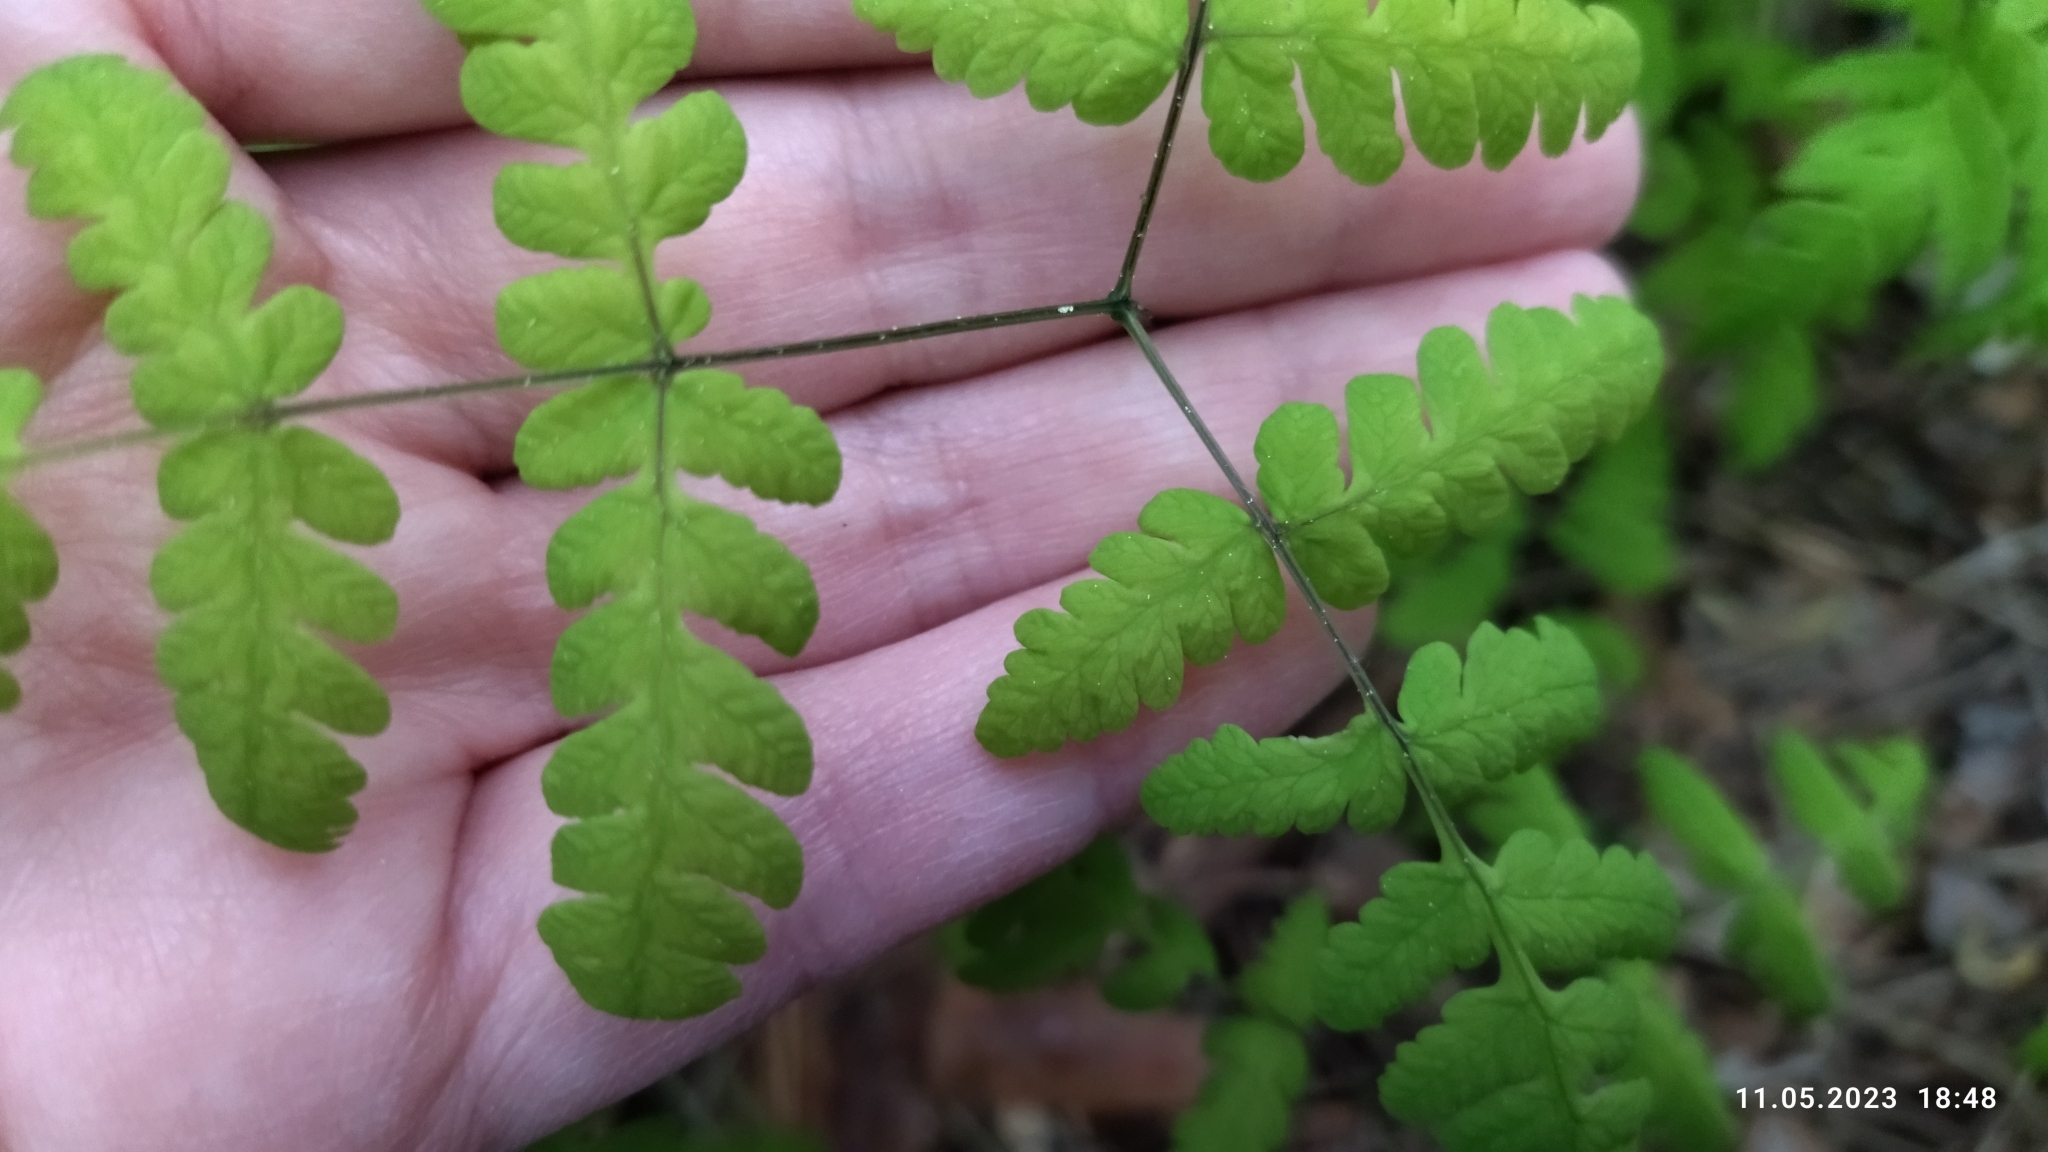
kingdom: Plantae
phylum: Tracheophyta
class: Polypodiopsida
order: Polypodiales
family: Cystopteridaceae
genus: Gymnocarpium
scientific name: Gymnocarpium dryopteris
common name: Oak fern
